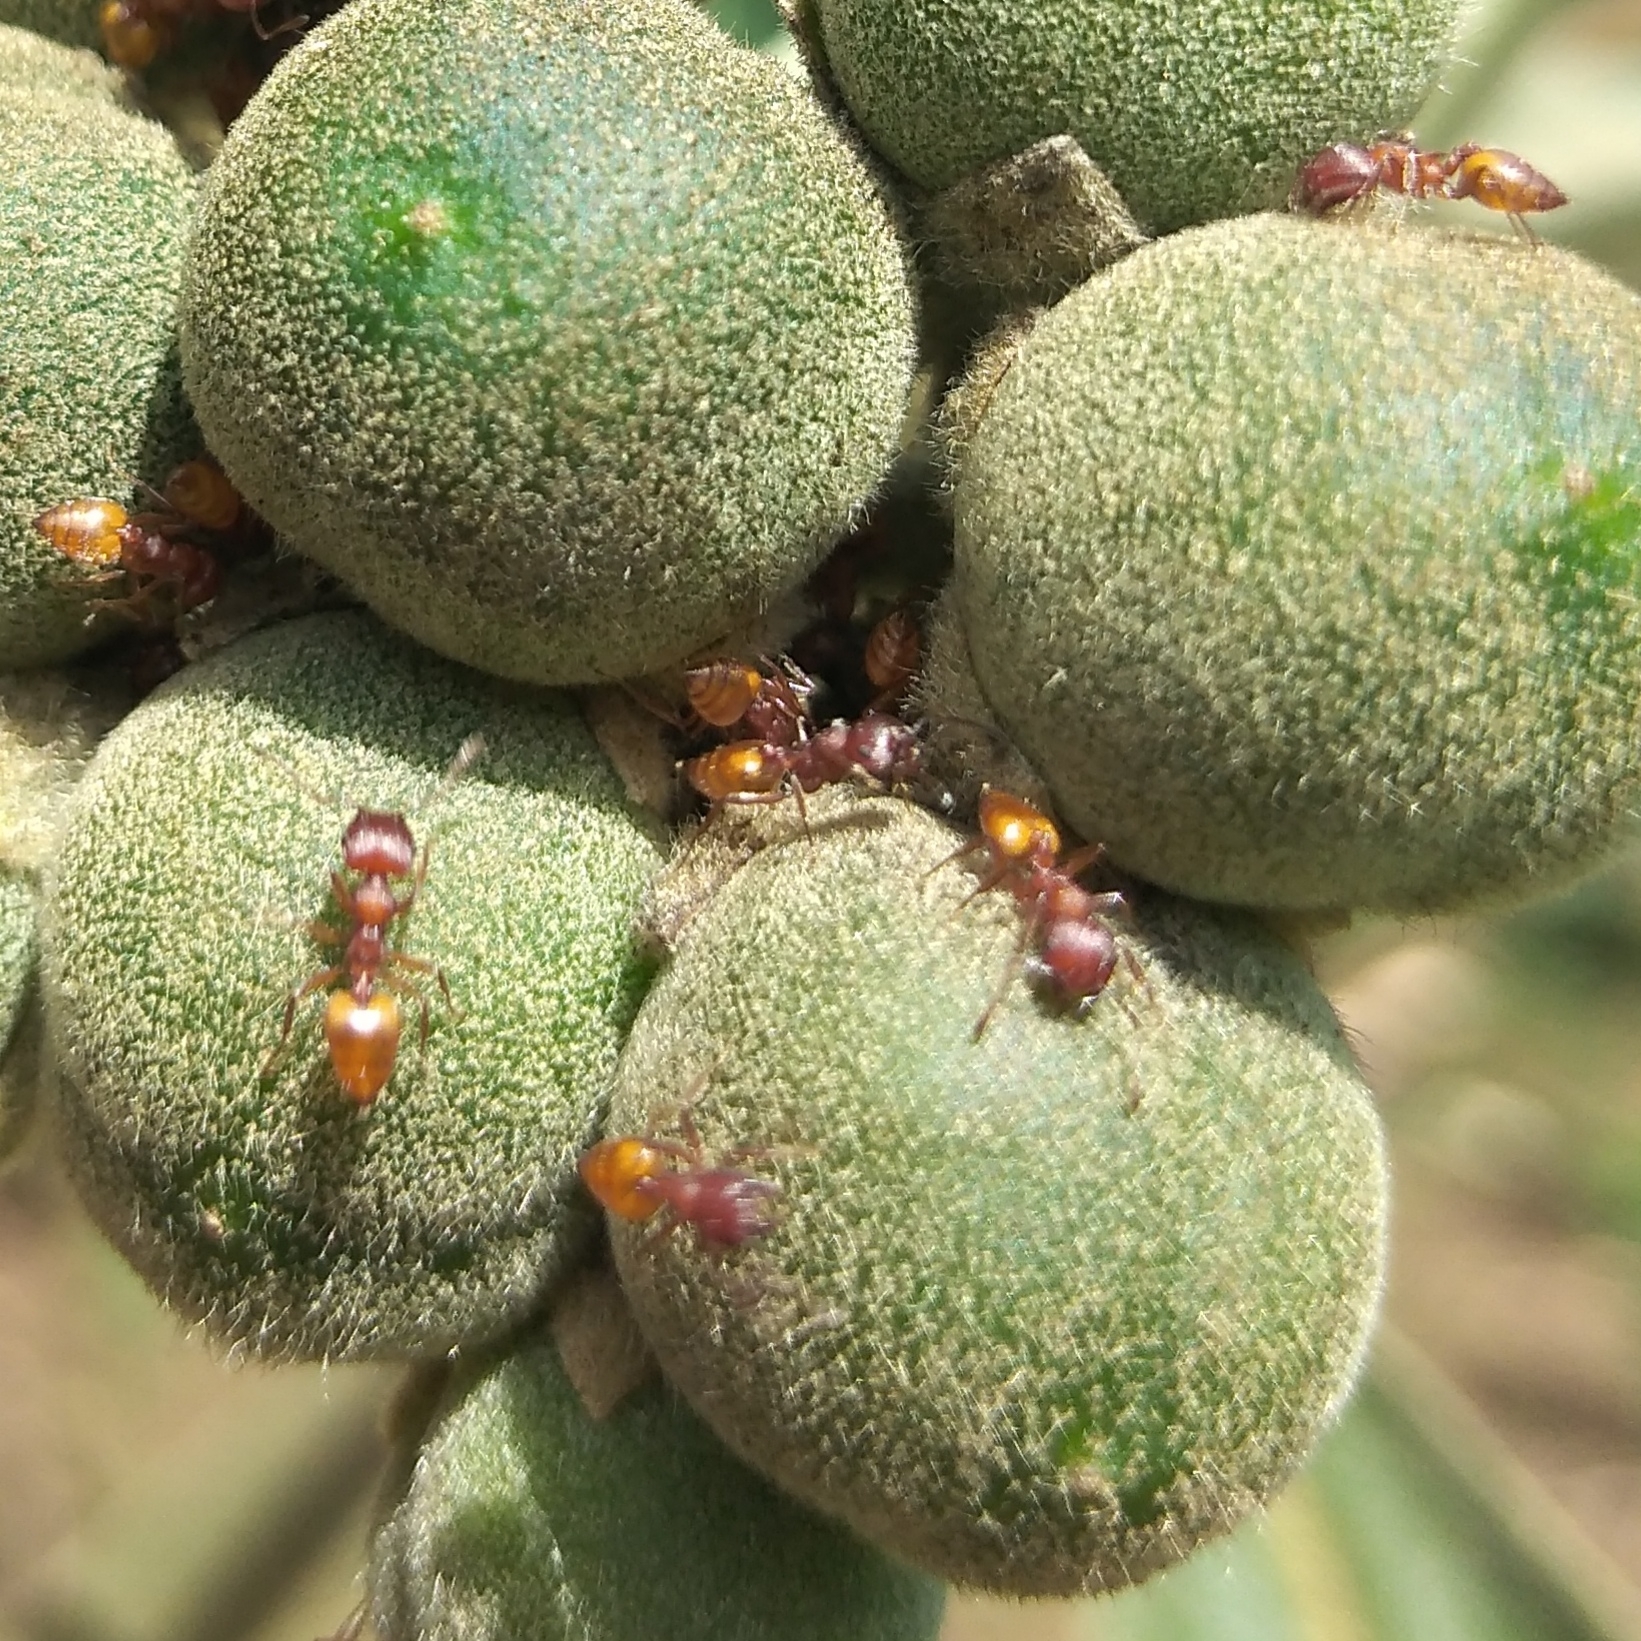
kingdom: Animalia
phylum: Arthropoda
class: Insecta
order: Hymenoptera
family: Formicidae
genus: Crematogaster
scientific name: Crematogaster castanea
